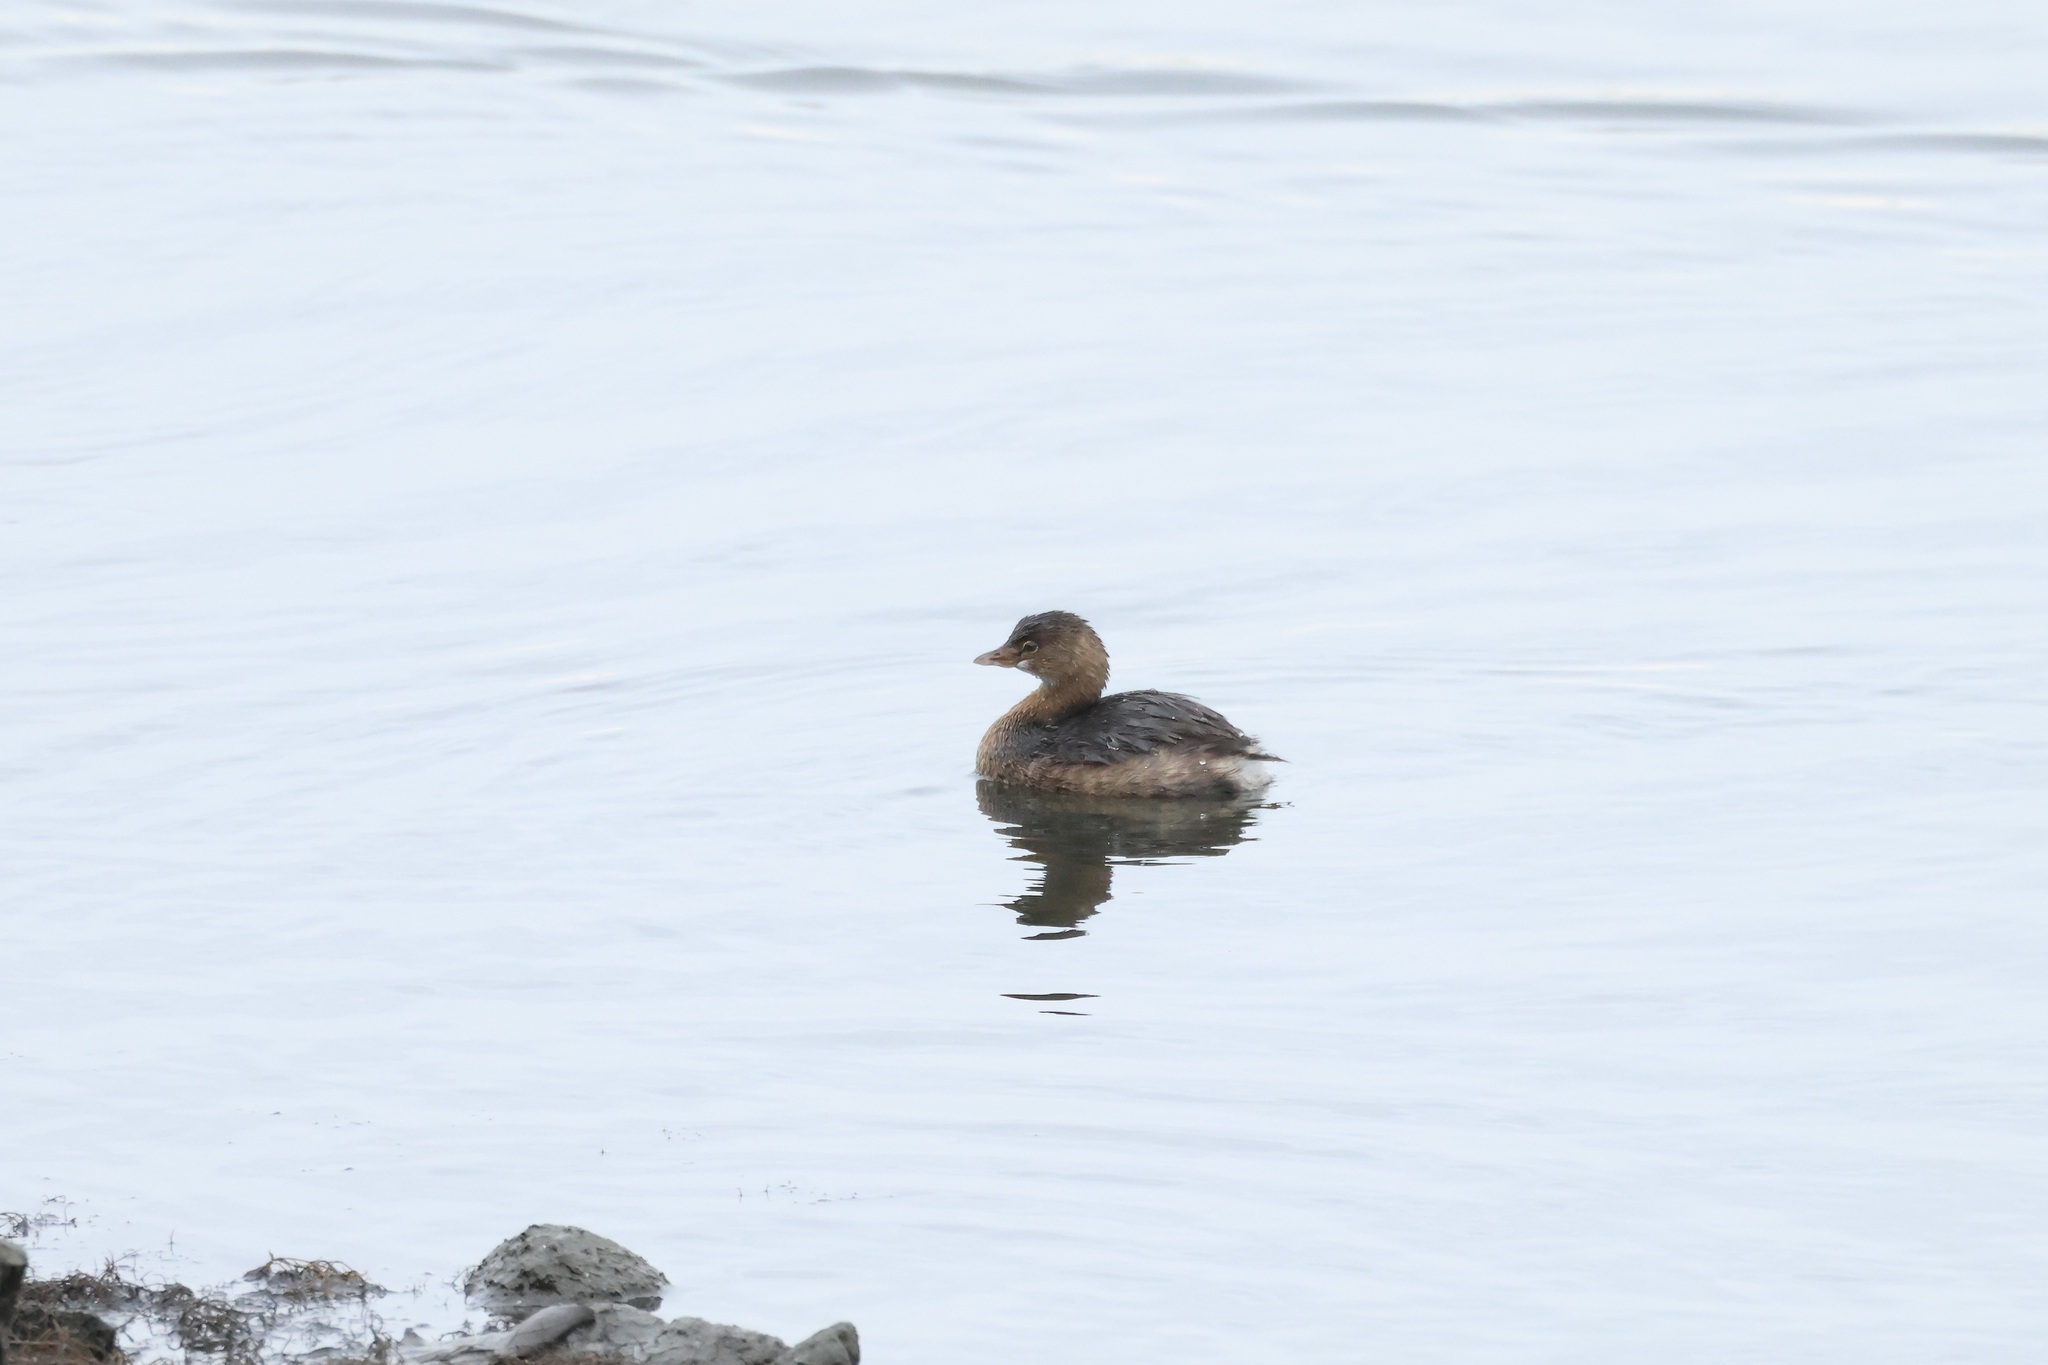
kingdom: Animalia
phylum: Chordata
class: Aves
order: Podicipediformes
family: Podicipedidae
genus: Podilymbus
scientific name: Podilymbus podiceps
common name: Pied-billed grebe
